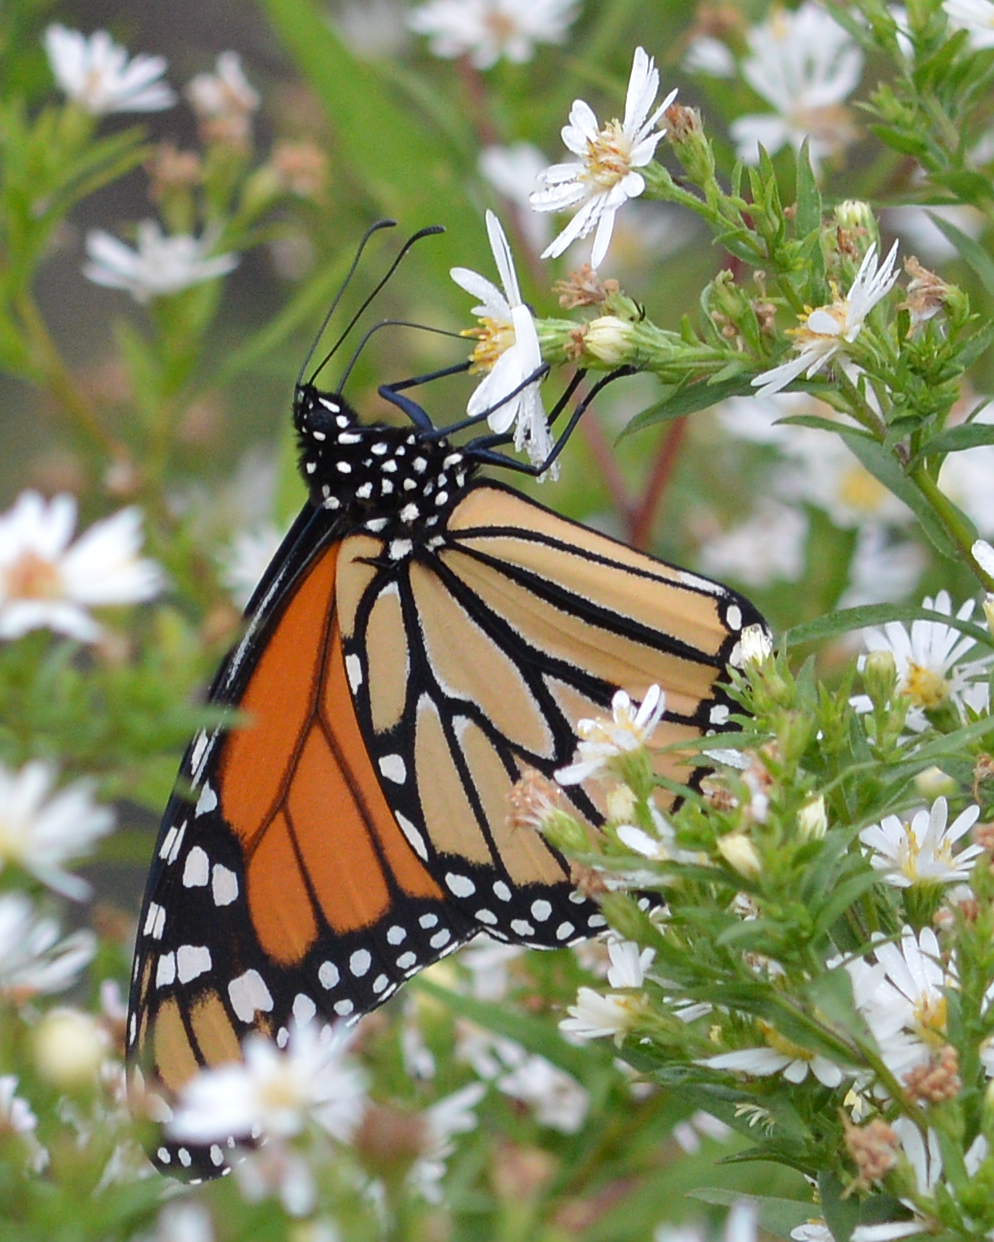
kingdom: Animalia
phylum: Arthropoda
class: Insecta
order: Lepidoptera
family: Nymphalidae
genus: Danaus
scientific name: Danaus plexippus
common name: Monarch
